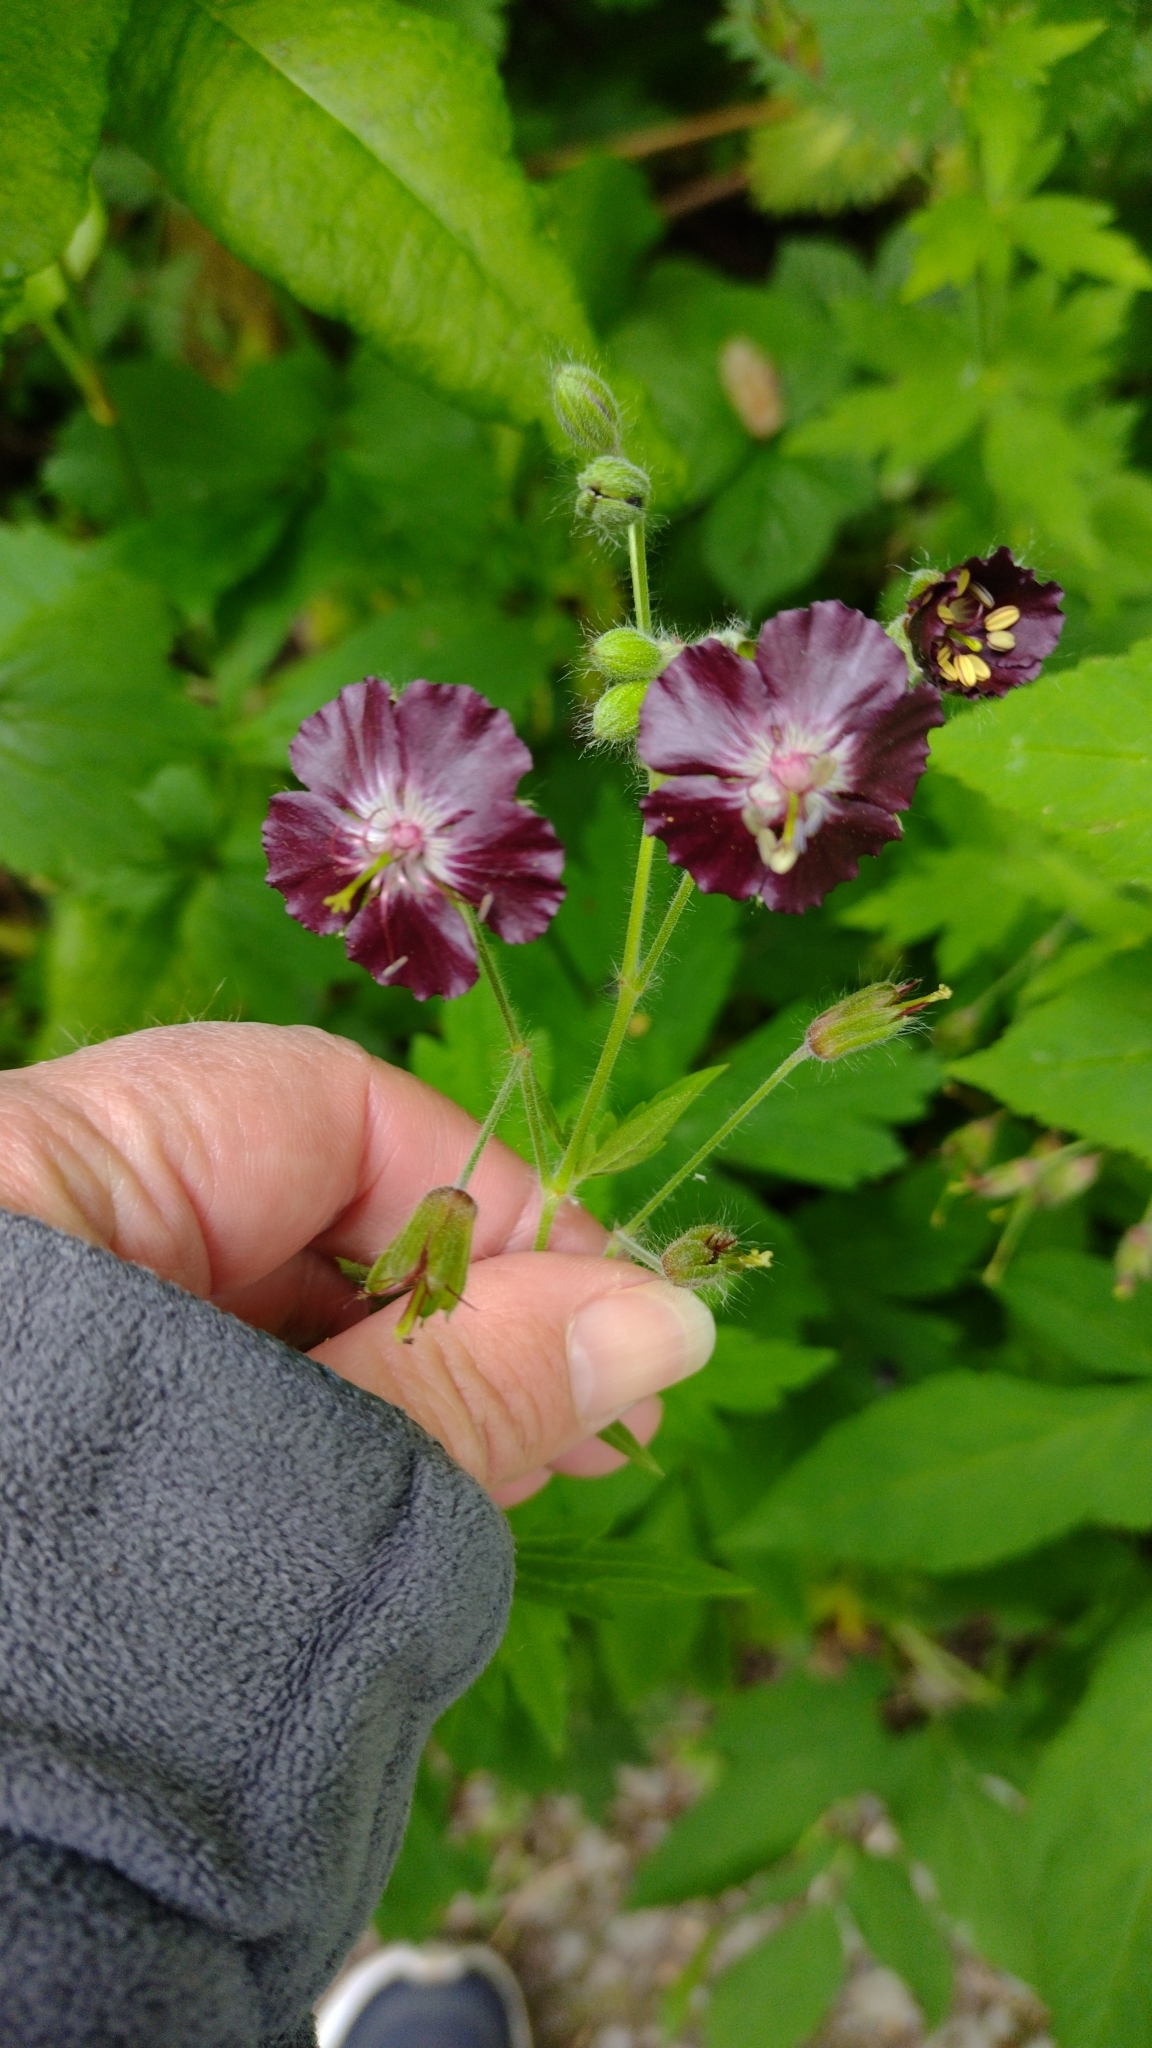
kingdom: Plantae
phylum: Tracheophyta
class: Magnoliopsida
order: Geraniales
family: Geraniaceae
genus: Geranium
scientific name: Geranium phaeum
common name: Dusky crane's-bill
